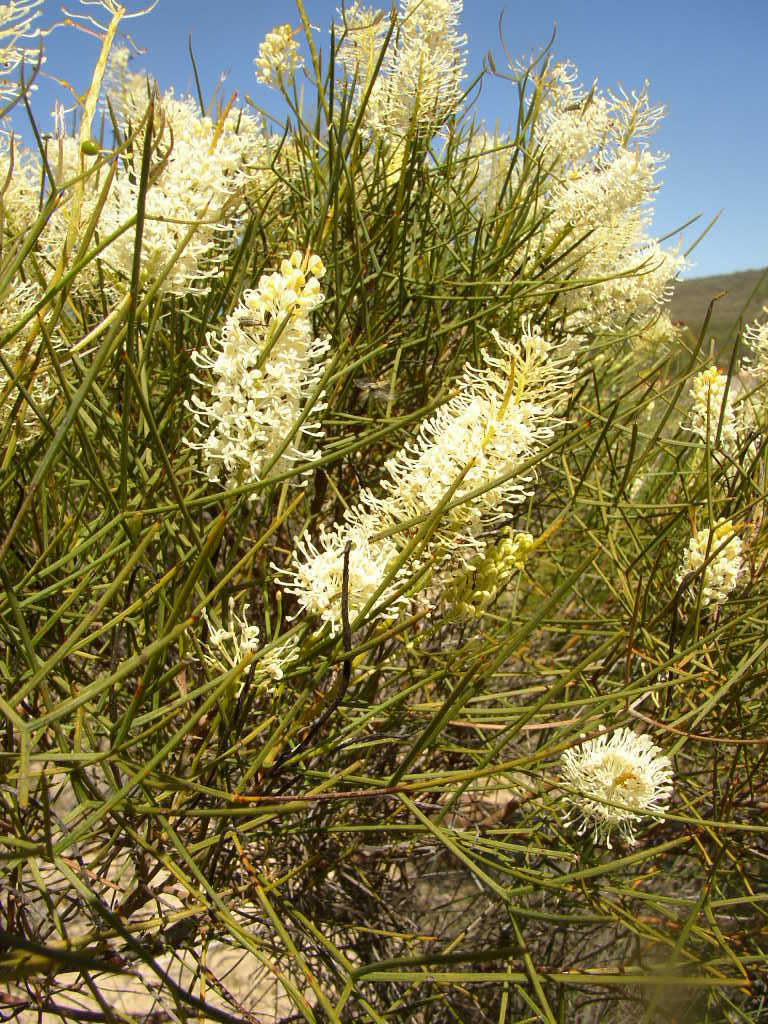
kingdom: Plantae
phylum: Tracheophyta
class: Magnoliopsida
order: Proteales
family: Proteaceae
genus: Grevillea
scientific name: Grevillea leptopoda
